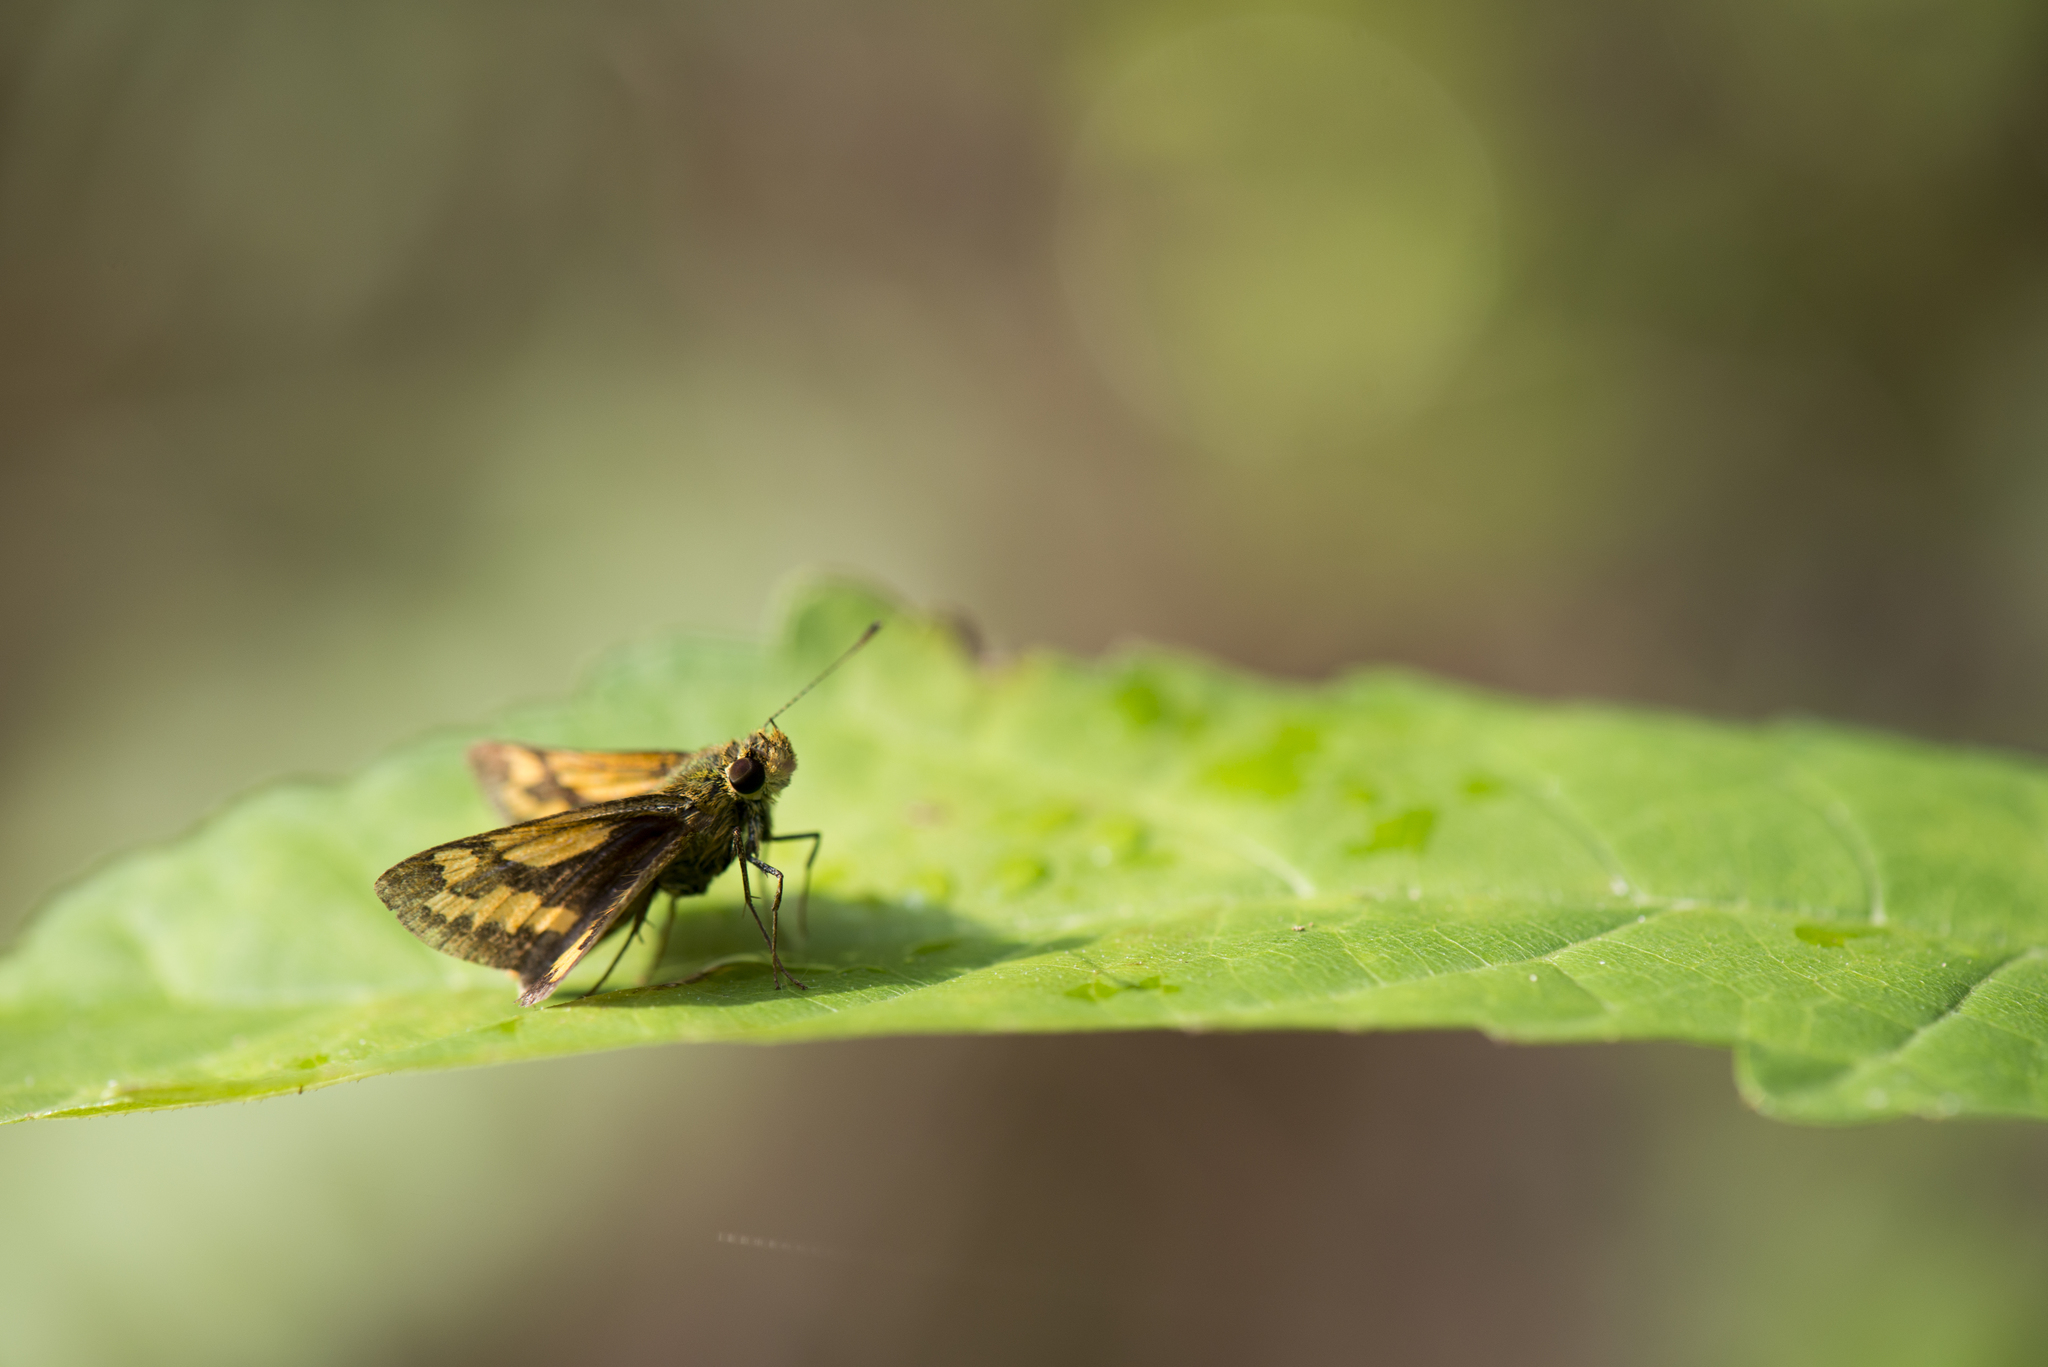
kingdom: Animalia
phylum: Arthropoda
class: Insecta
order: Lepidoptera
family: Hesperiidae
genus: Telicota
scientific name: Telicota ohara
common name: Dark palm dart
